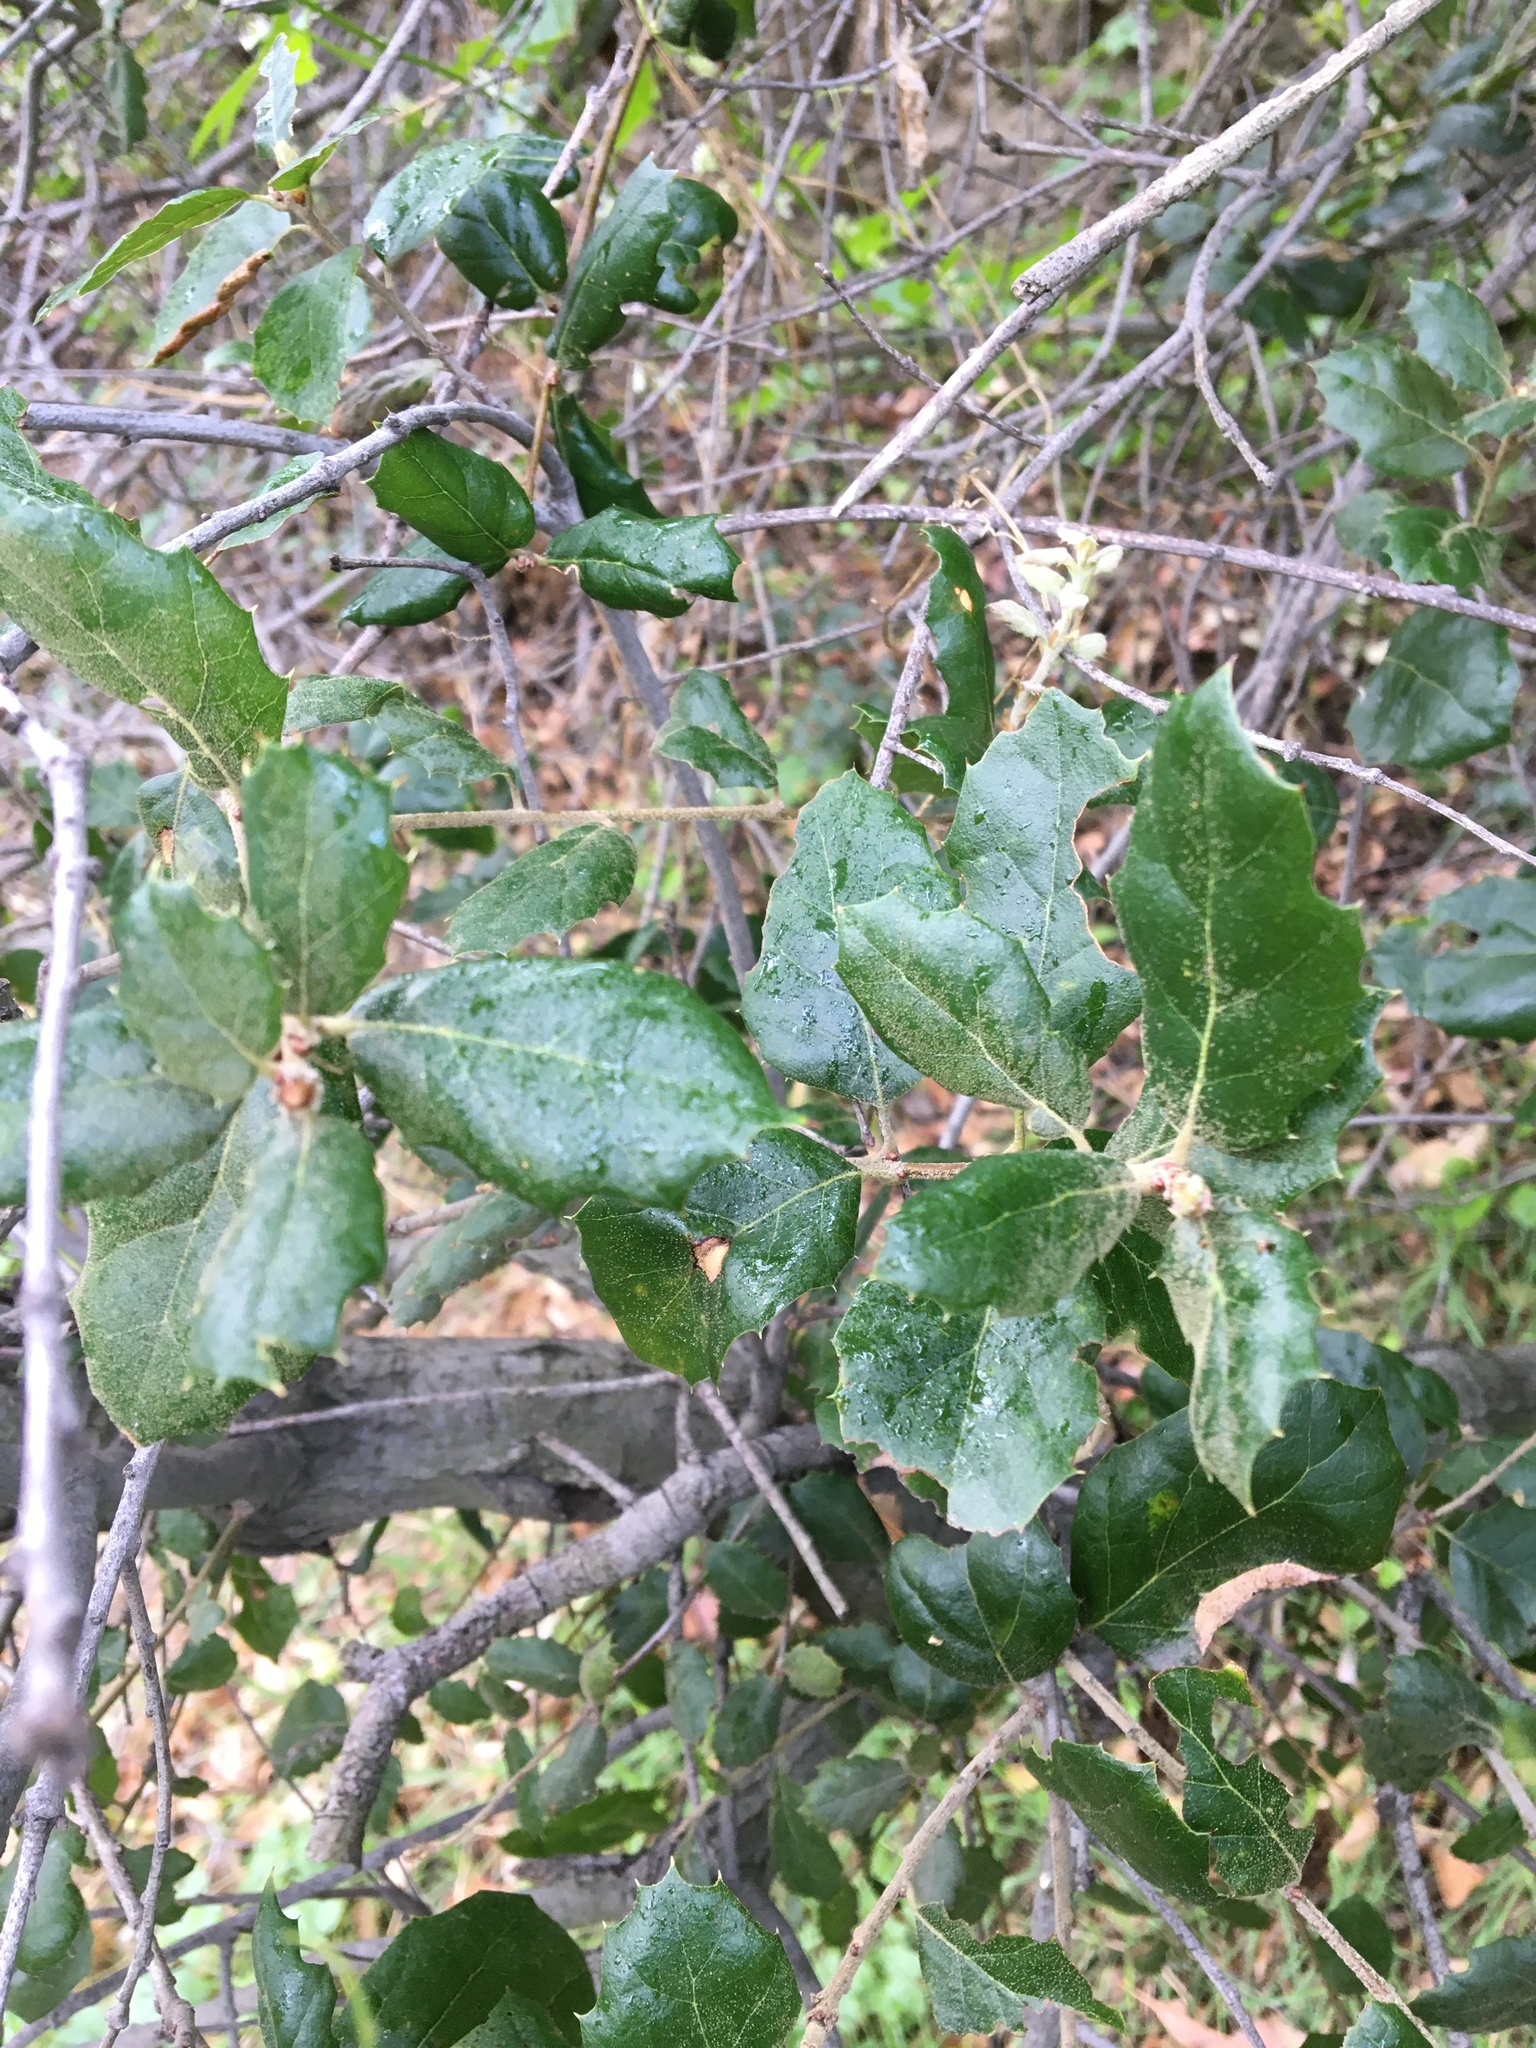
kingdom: Plantae
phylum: Tracheophyta
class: Magnoliopsida
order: Fagales
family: Fagaceae
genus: Quercus
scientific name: Quercus agrifolia
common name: California live oak
